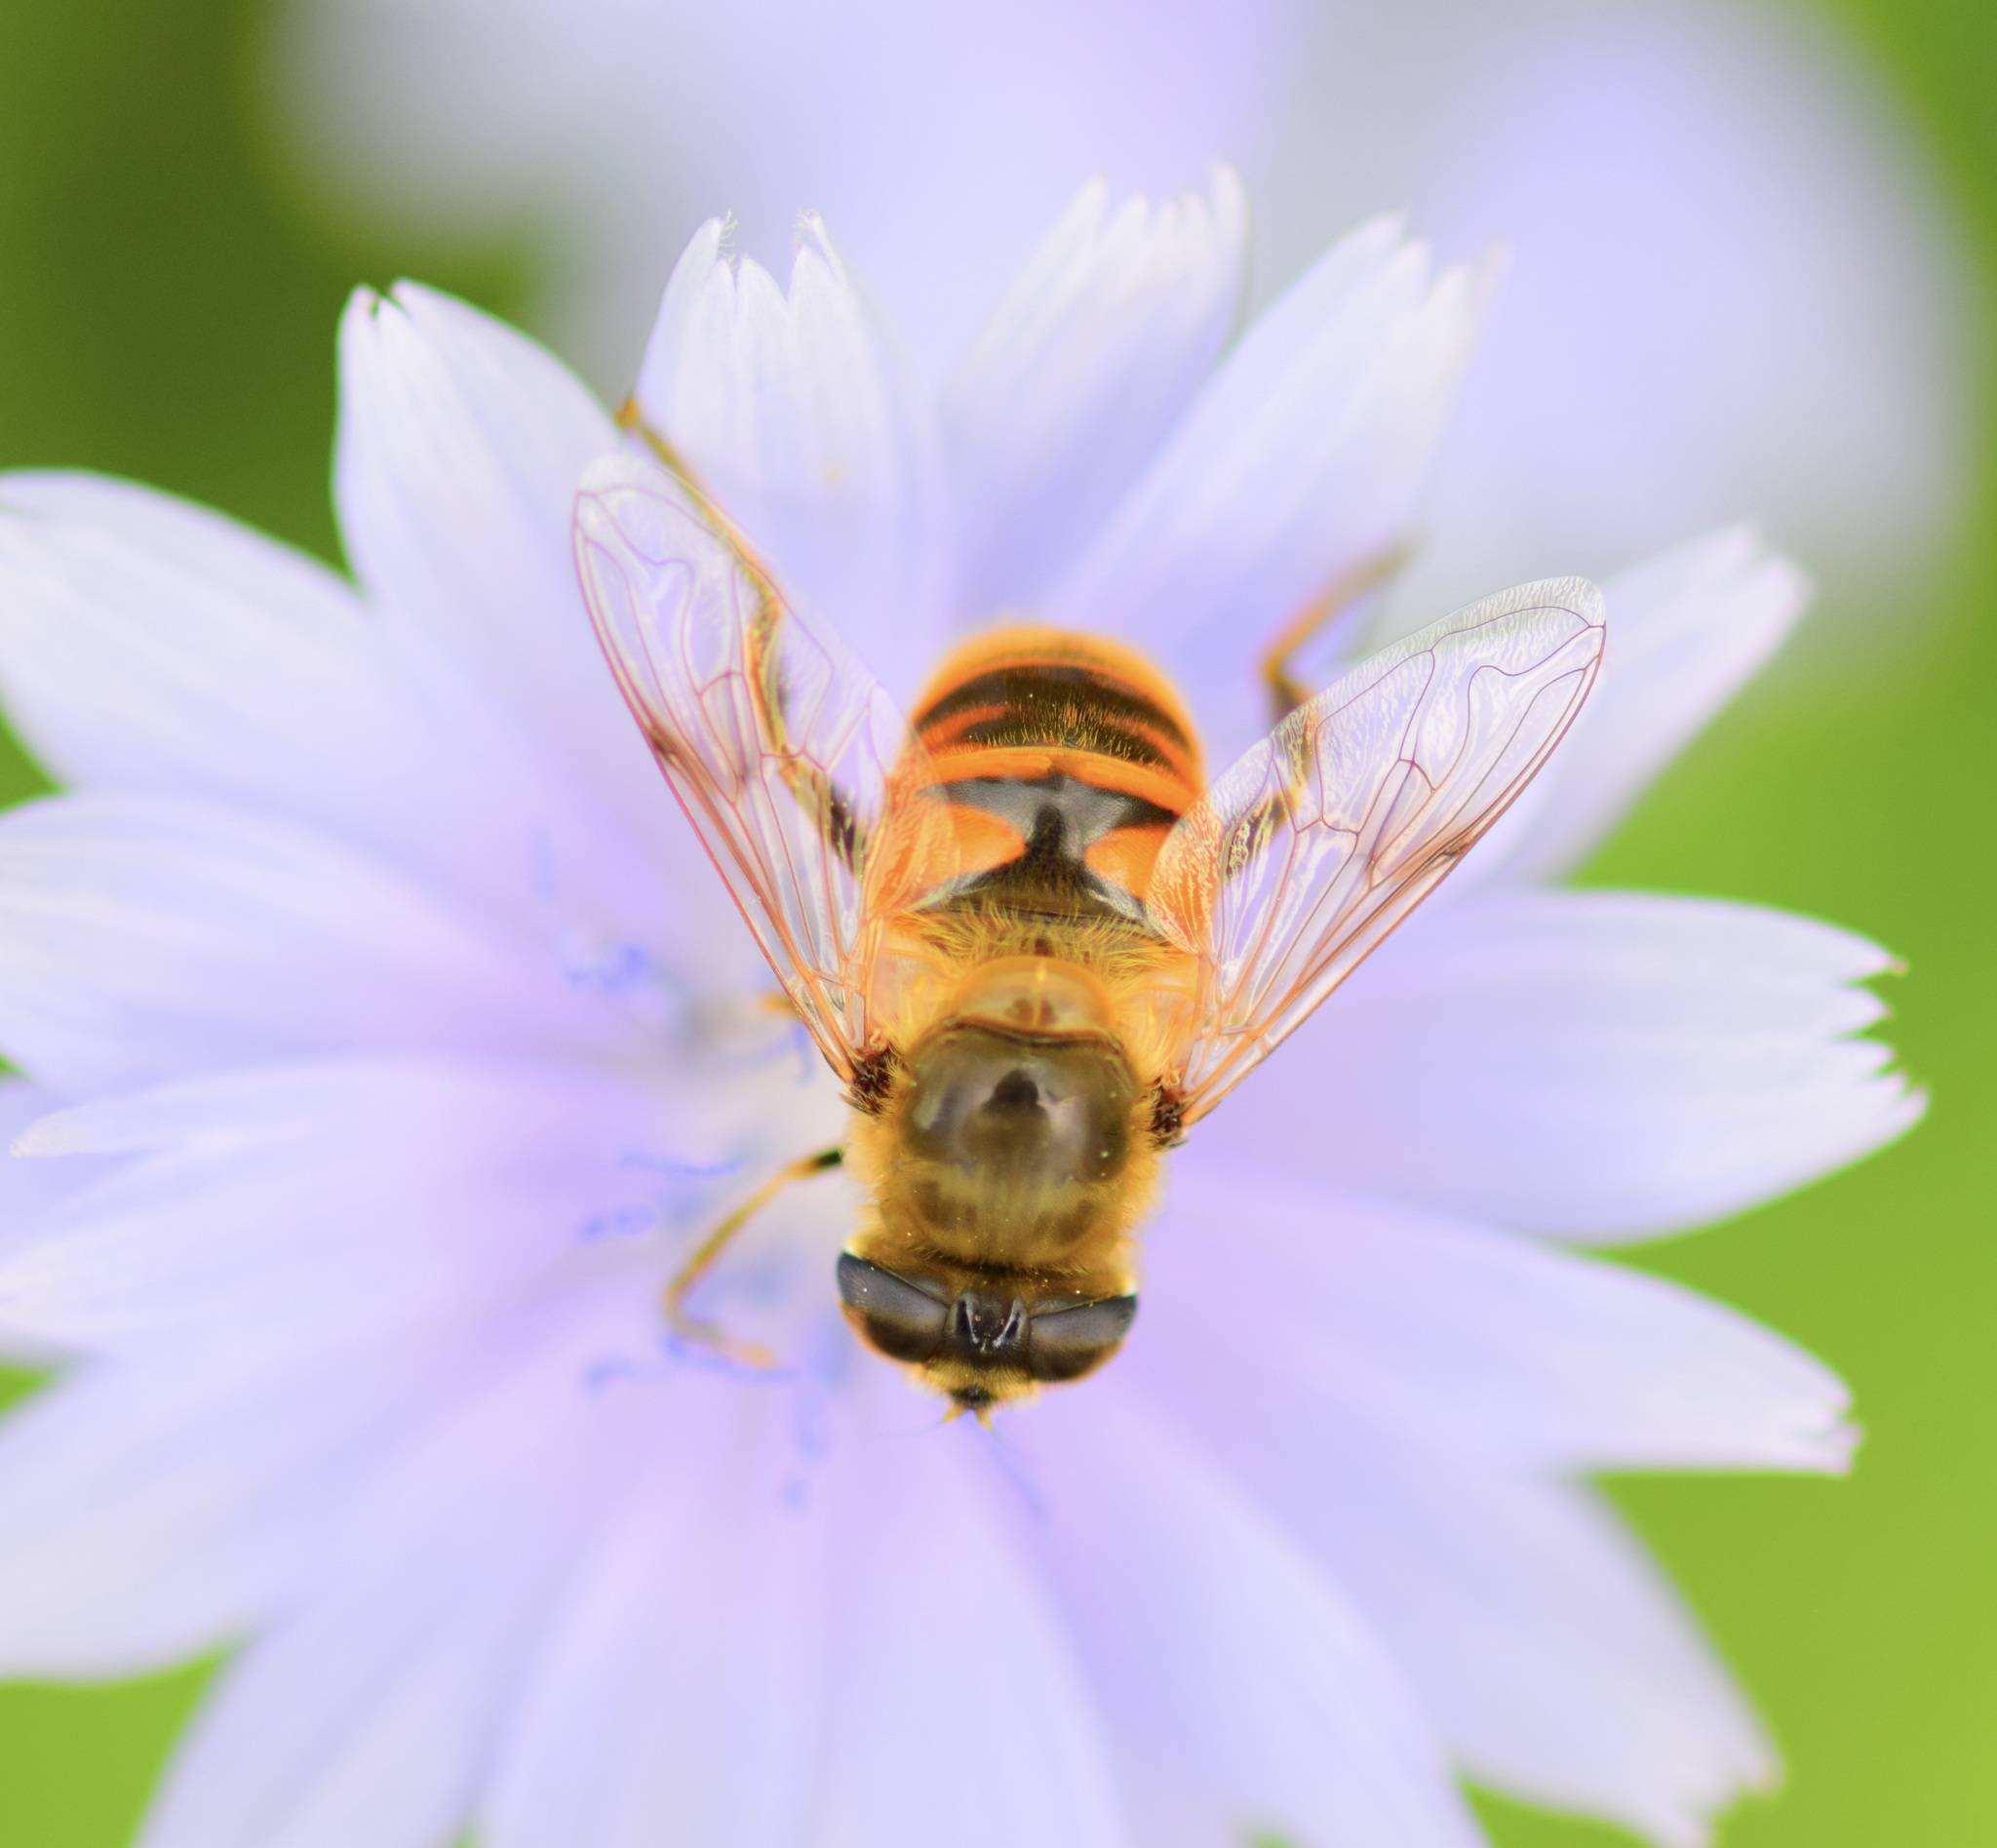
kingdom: Animalia
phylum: Arthropoda
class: Insecta
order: Diptera
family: Syrphidae
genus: Eristalis
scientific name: Eristalis tenax
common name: Drone fly
